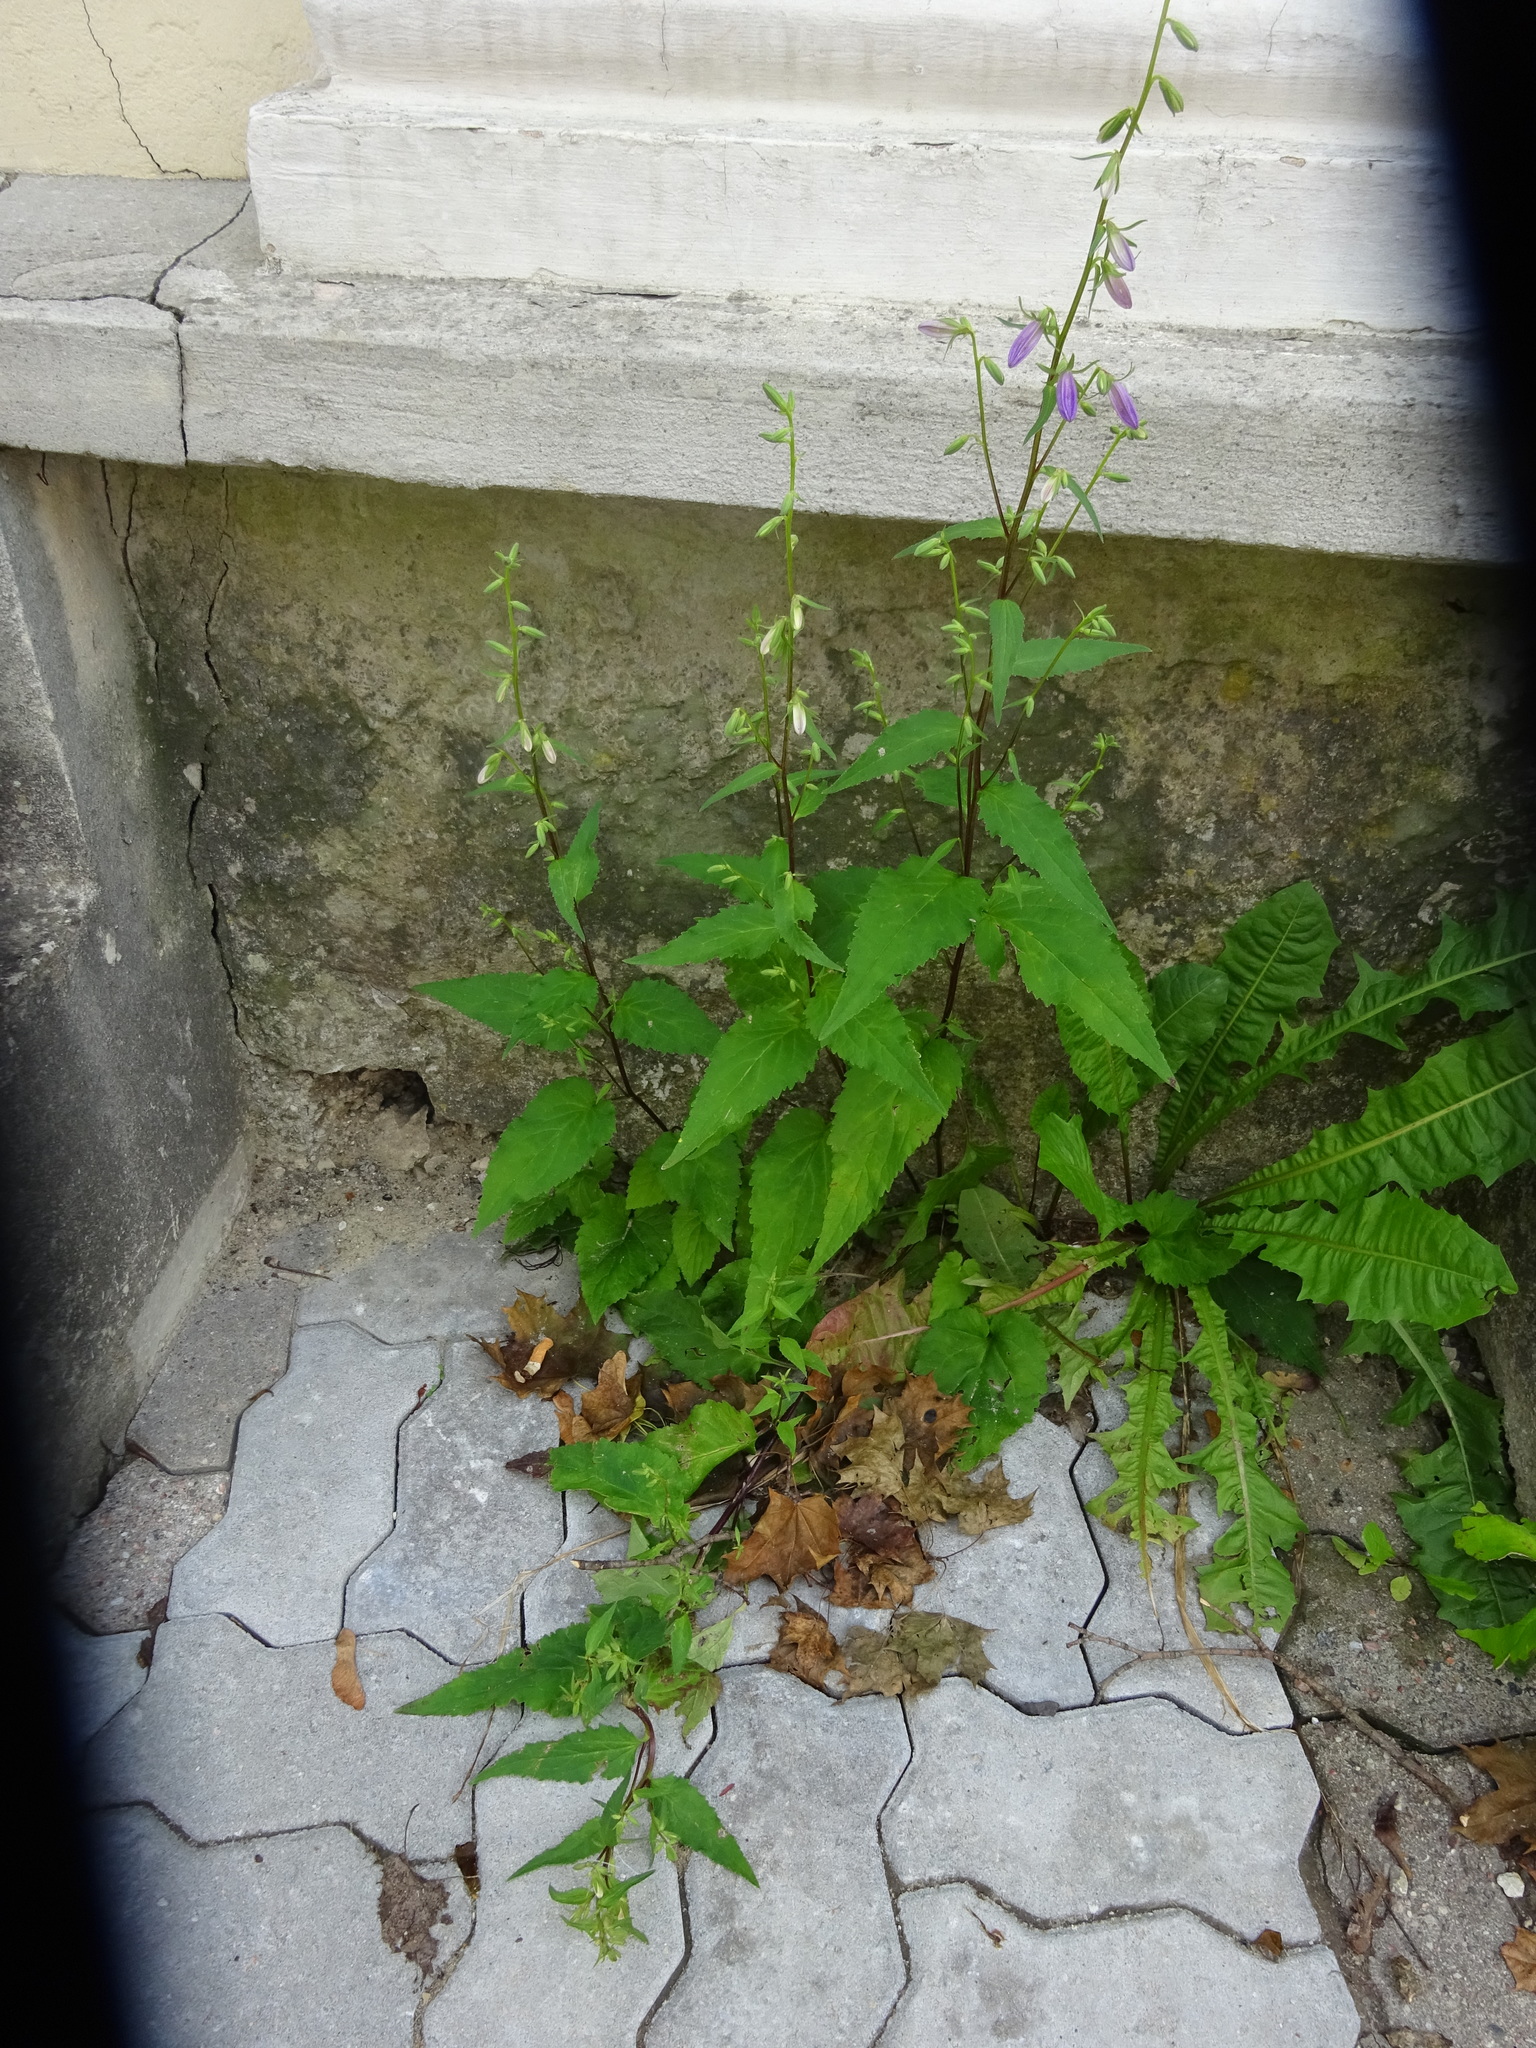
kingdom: Plantae
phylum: Tracheophyta
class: Magnoliopsida
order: Asterales
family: Campanulaceae
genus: Campanula
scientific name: Campanula rapunculoides
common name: Creeping bellflower
